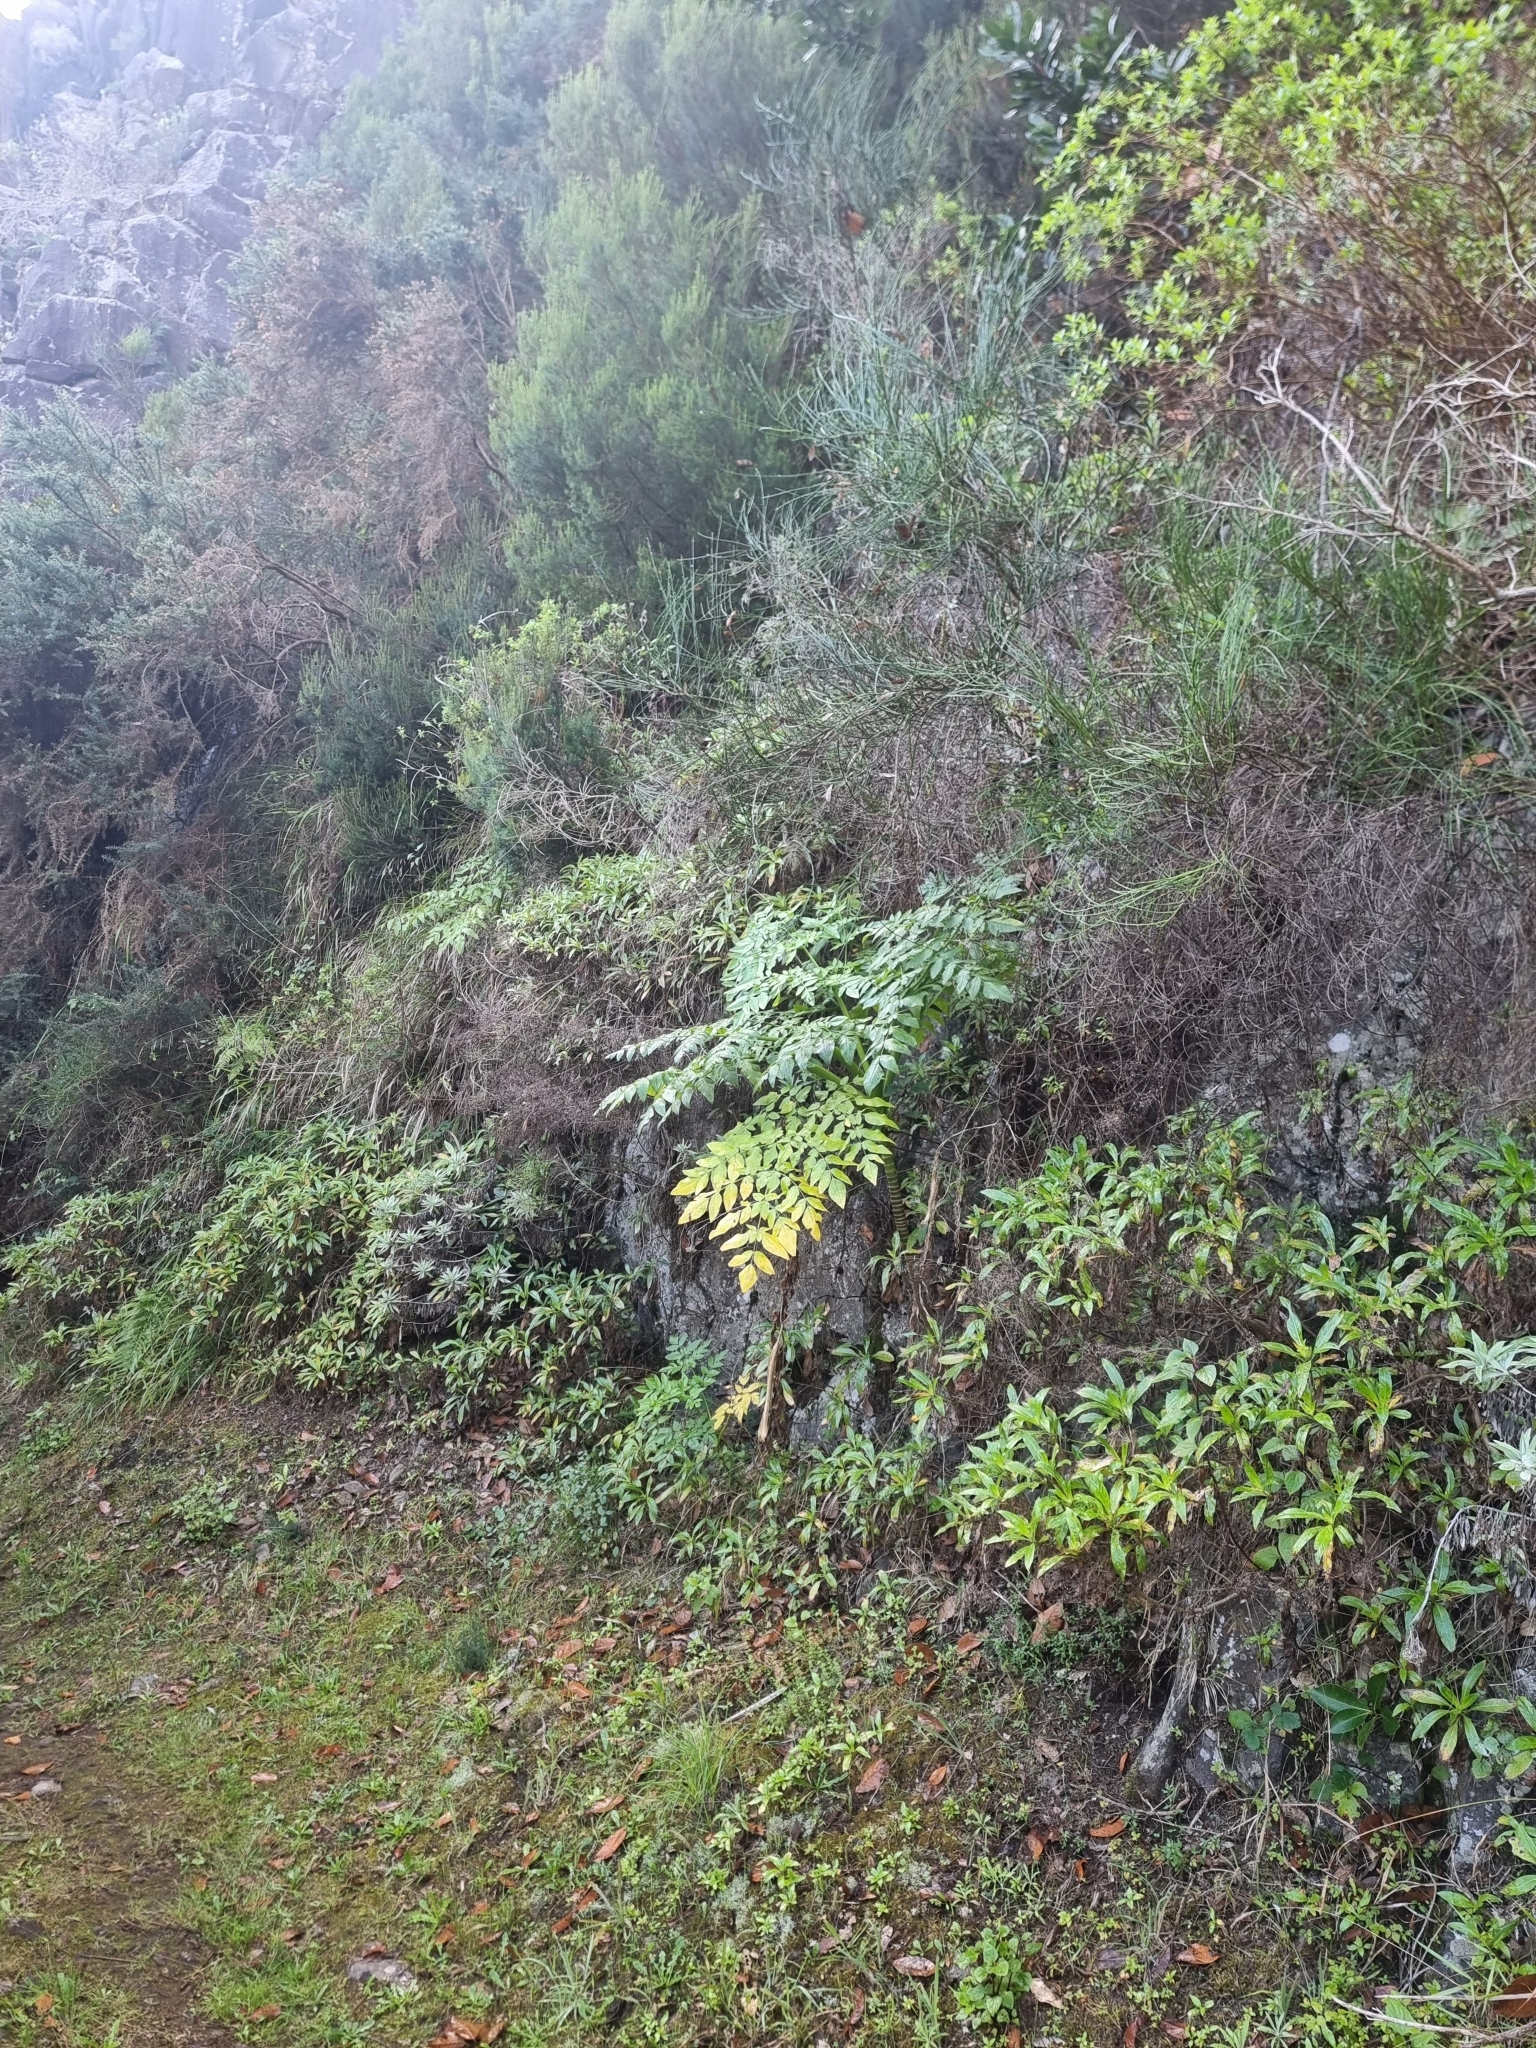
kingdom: Plantae
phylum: Tracheophyta
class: Magnoliopsida
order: Apiales
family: Apiaceae
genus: Daucus
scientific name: Daucus decipiens
